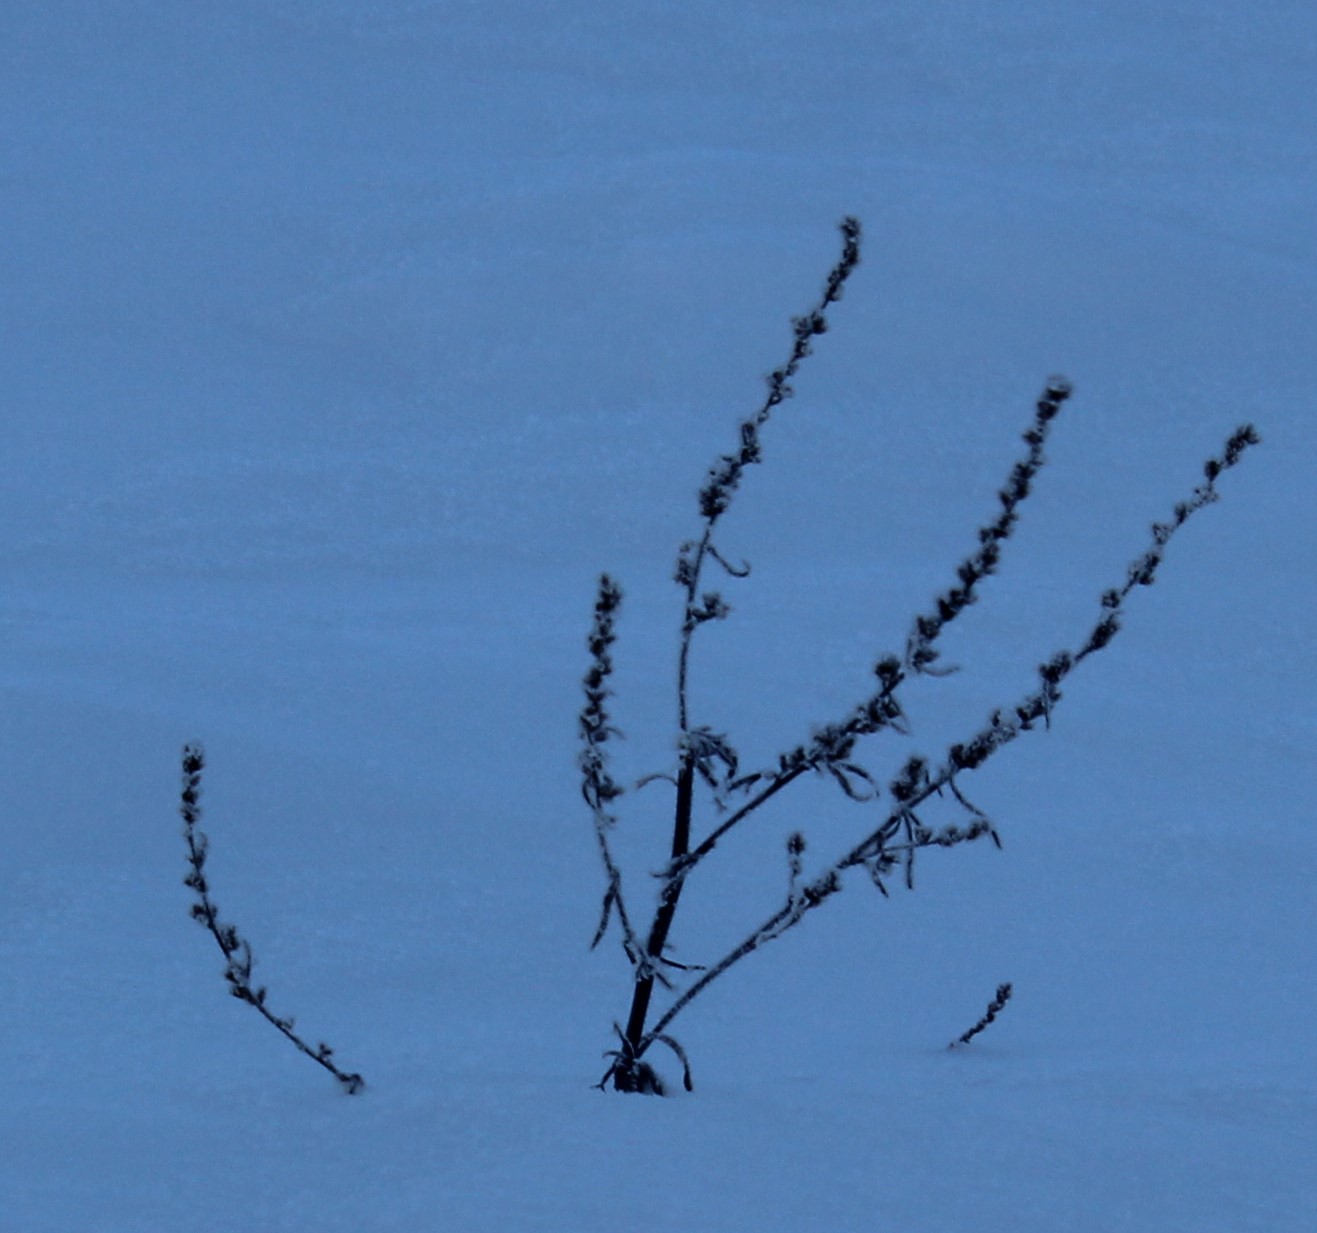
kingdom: Plantae
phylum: Tracheophyta
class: Magnoliopsida
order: Asterales
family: Asteraceae
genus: Artemisia
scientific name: Artemisia vulgaris
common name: Mugwort
